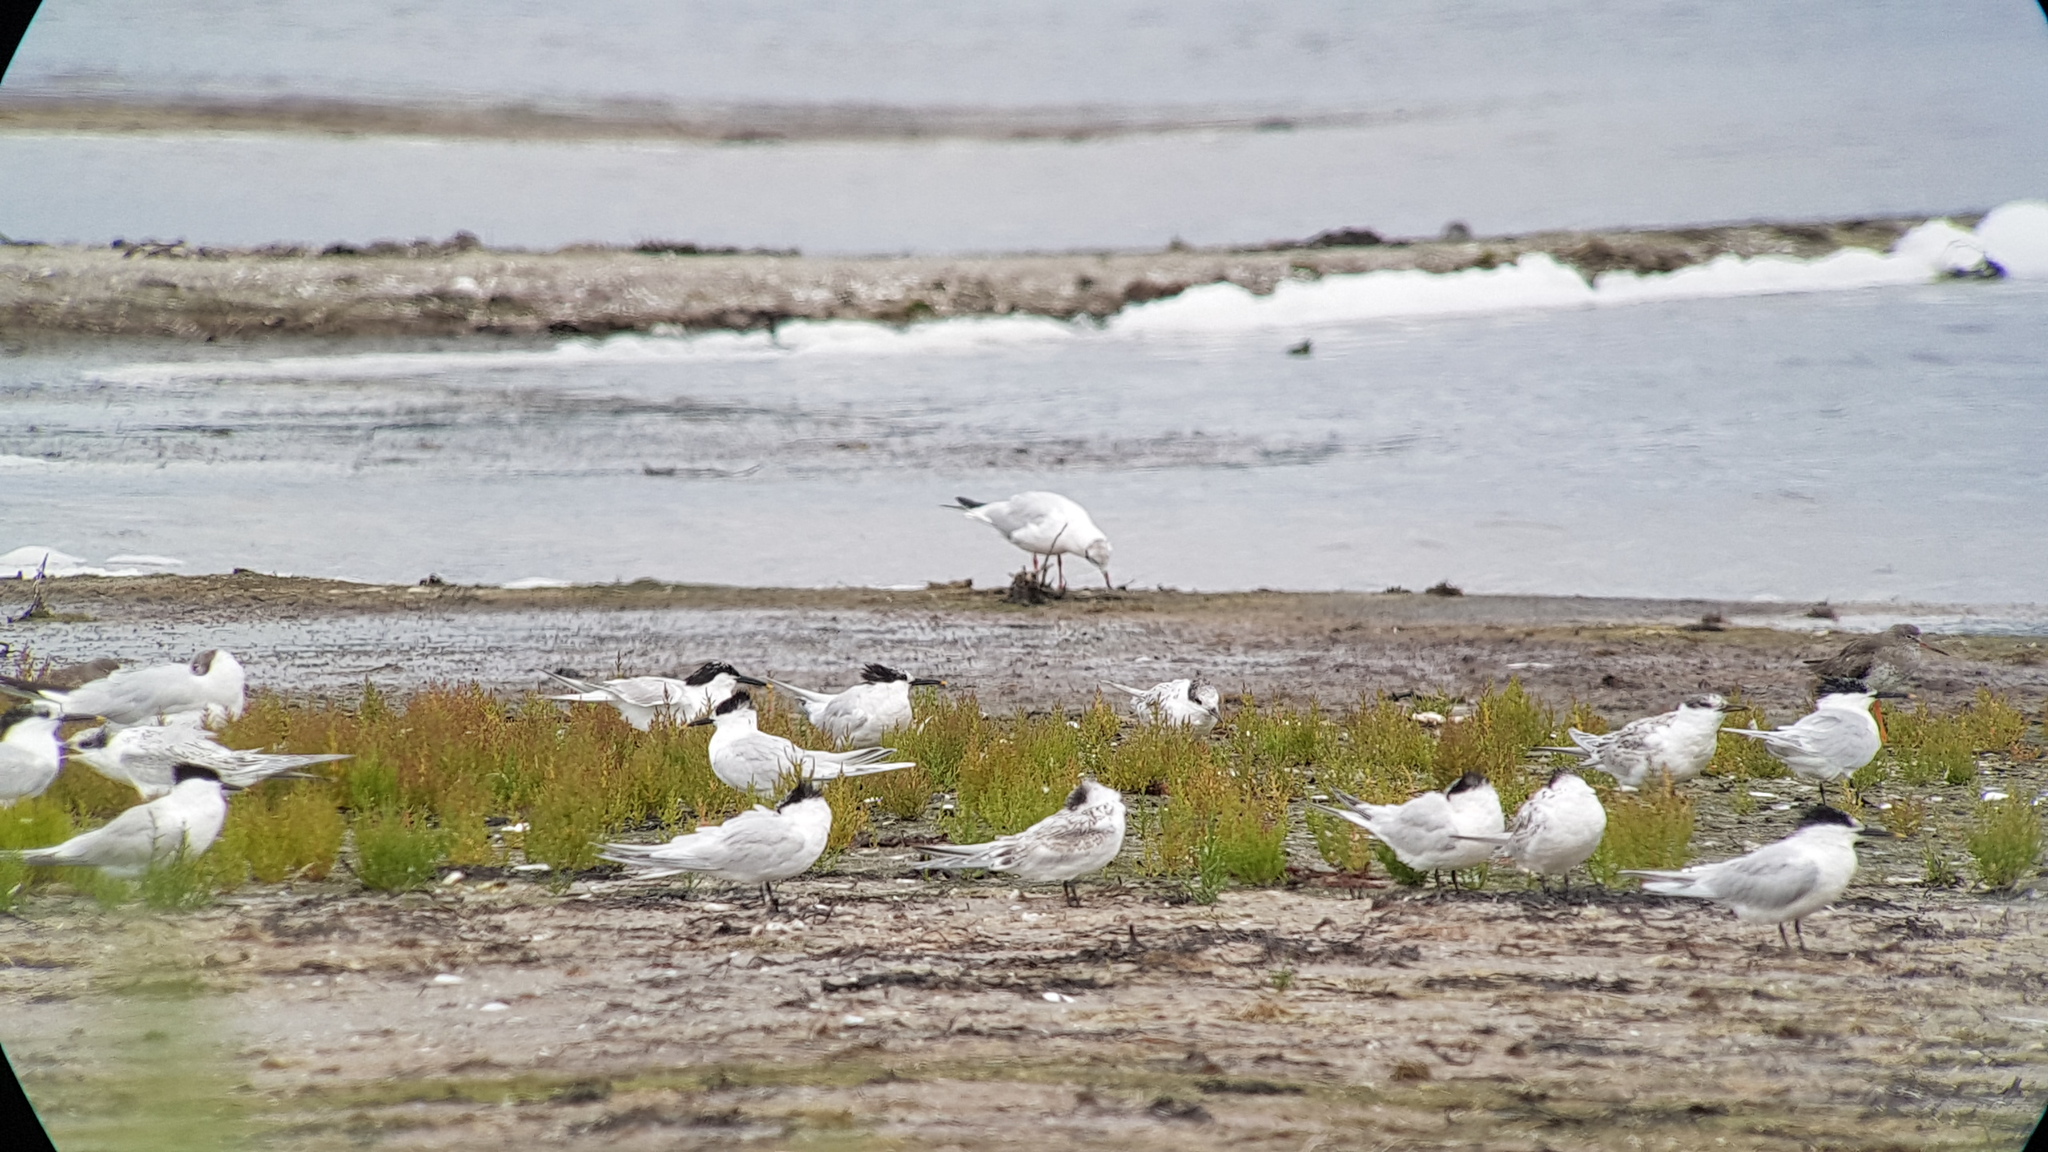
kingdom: Animalia
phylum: Chordata
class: Aves
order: Charadriiformes
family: Laridae
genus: Thalasseus
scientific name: Thalasseus sandvicensis
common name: Sandwich tern
